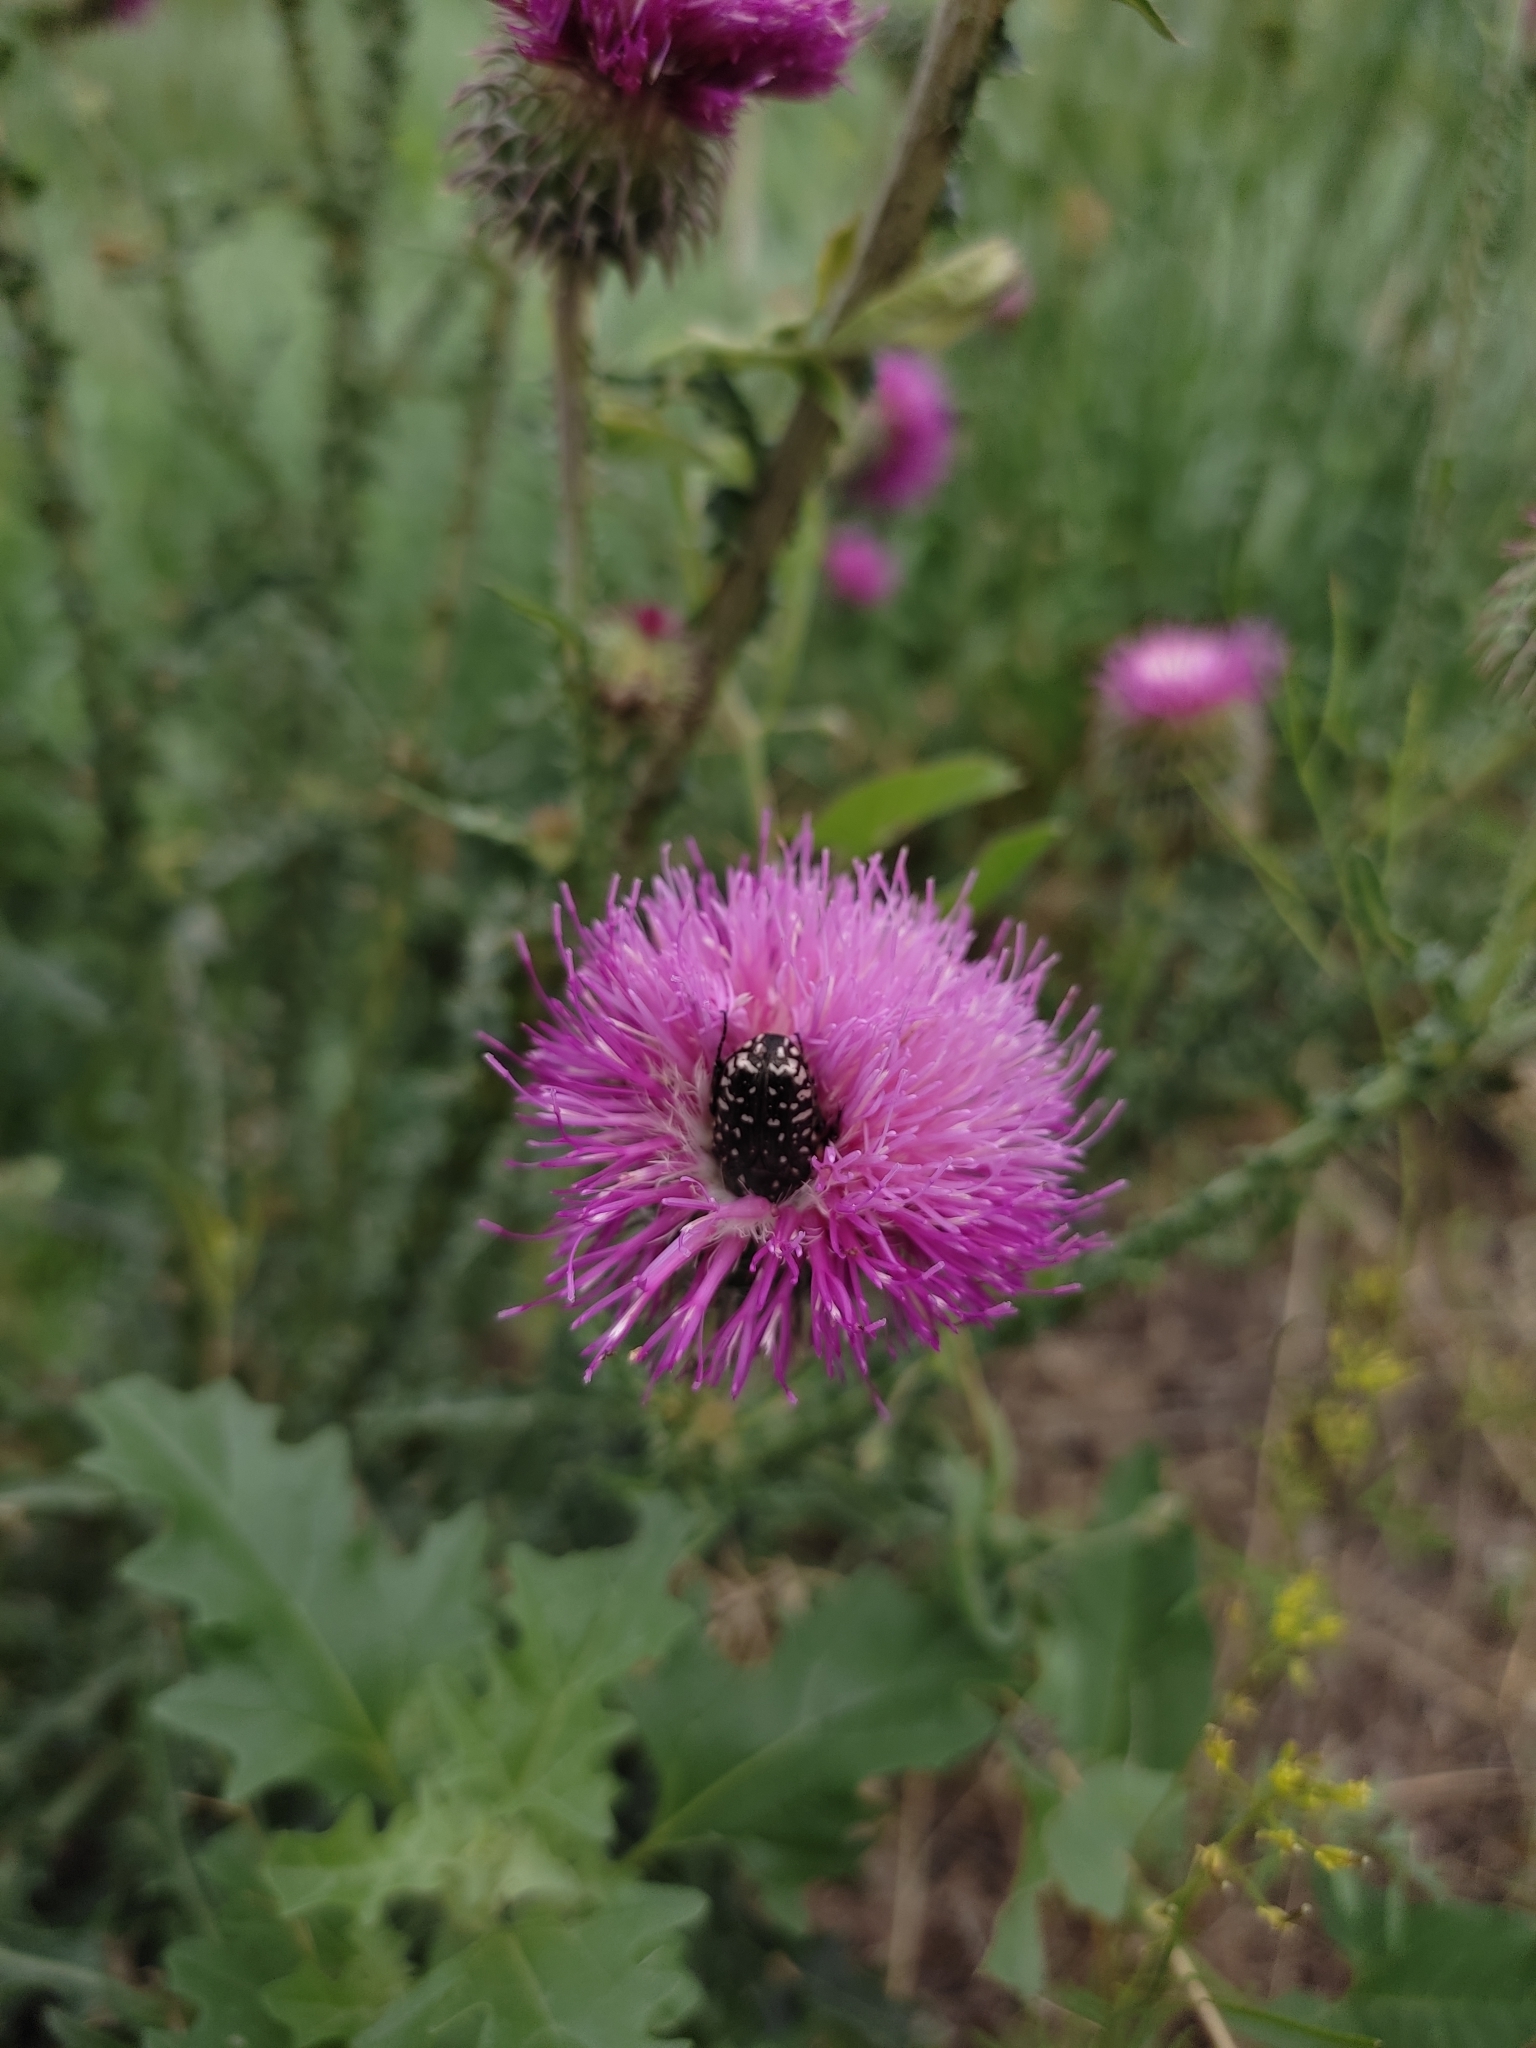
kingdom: Animalia
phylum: Arthropoda
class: Insecta
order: Coleoptera
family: Scarabaeidae
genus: Oxythyrea
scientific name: Oxythyrea funesta
